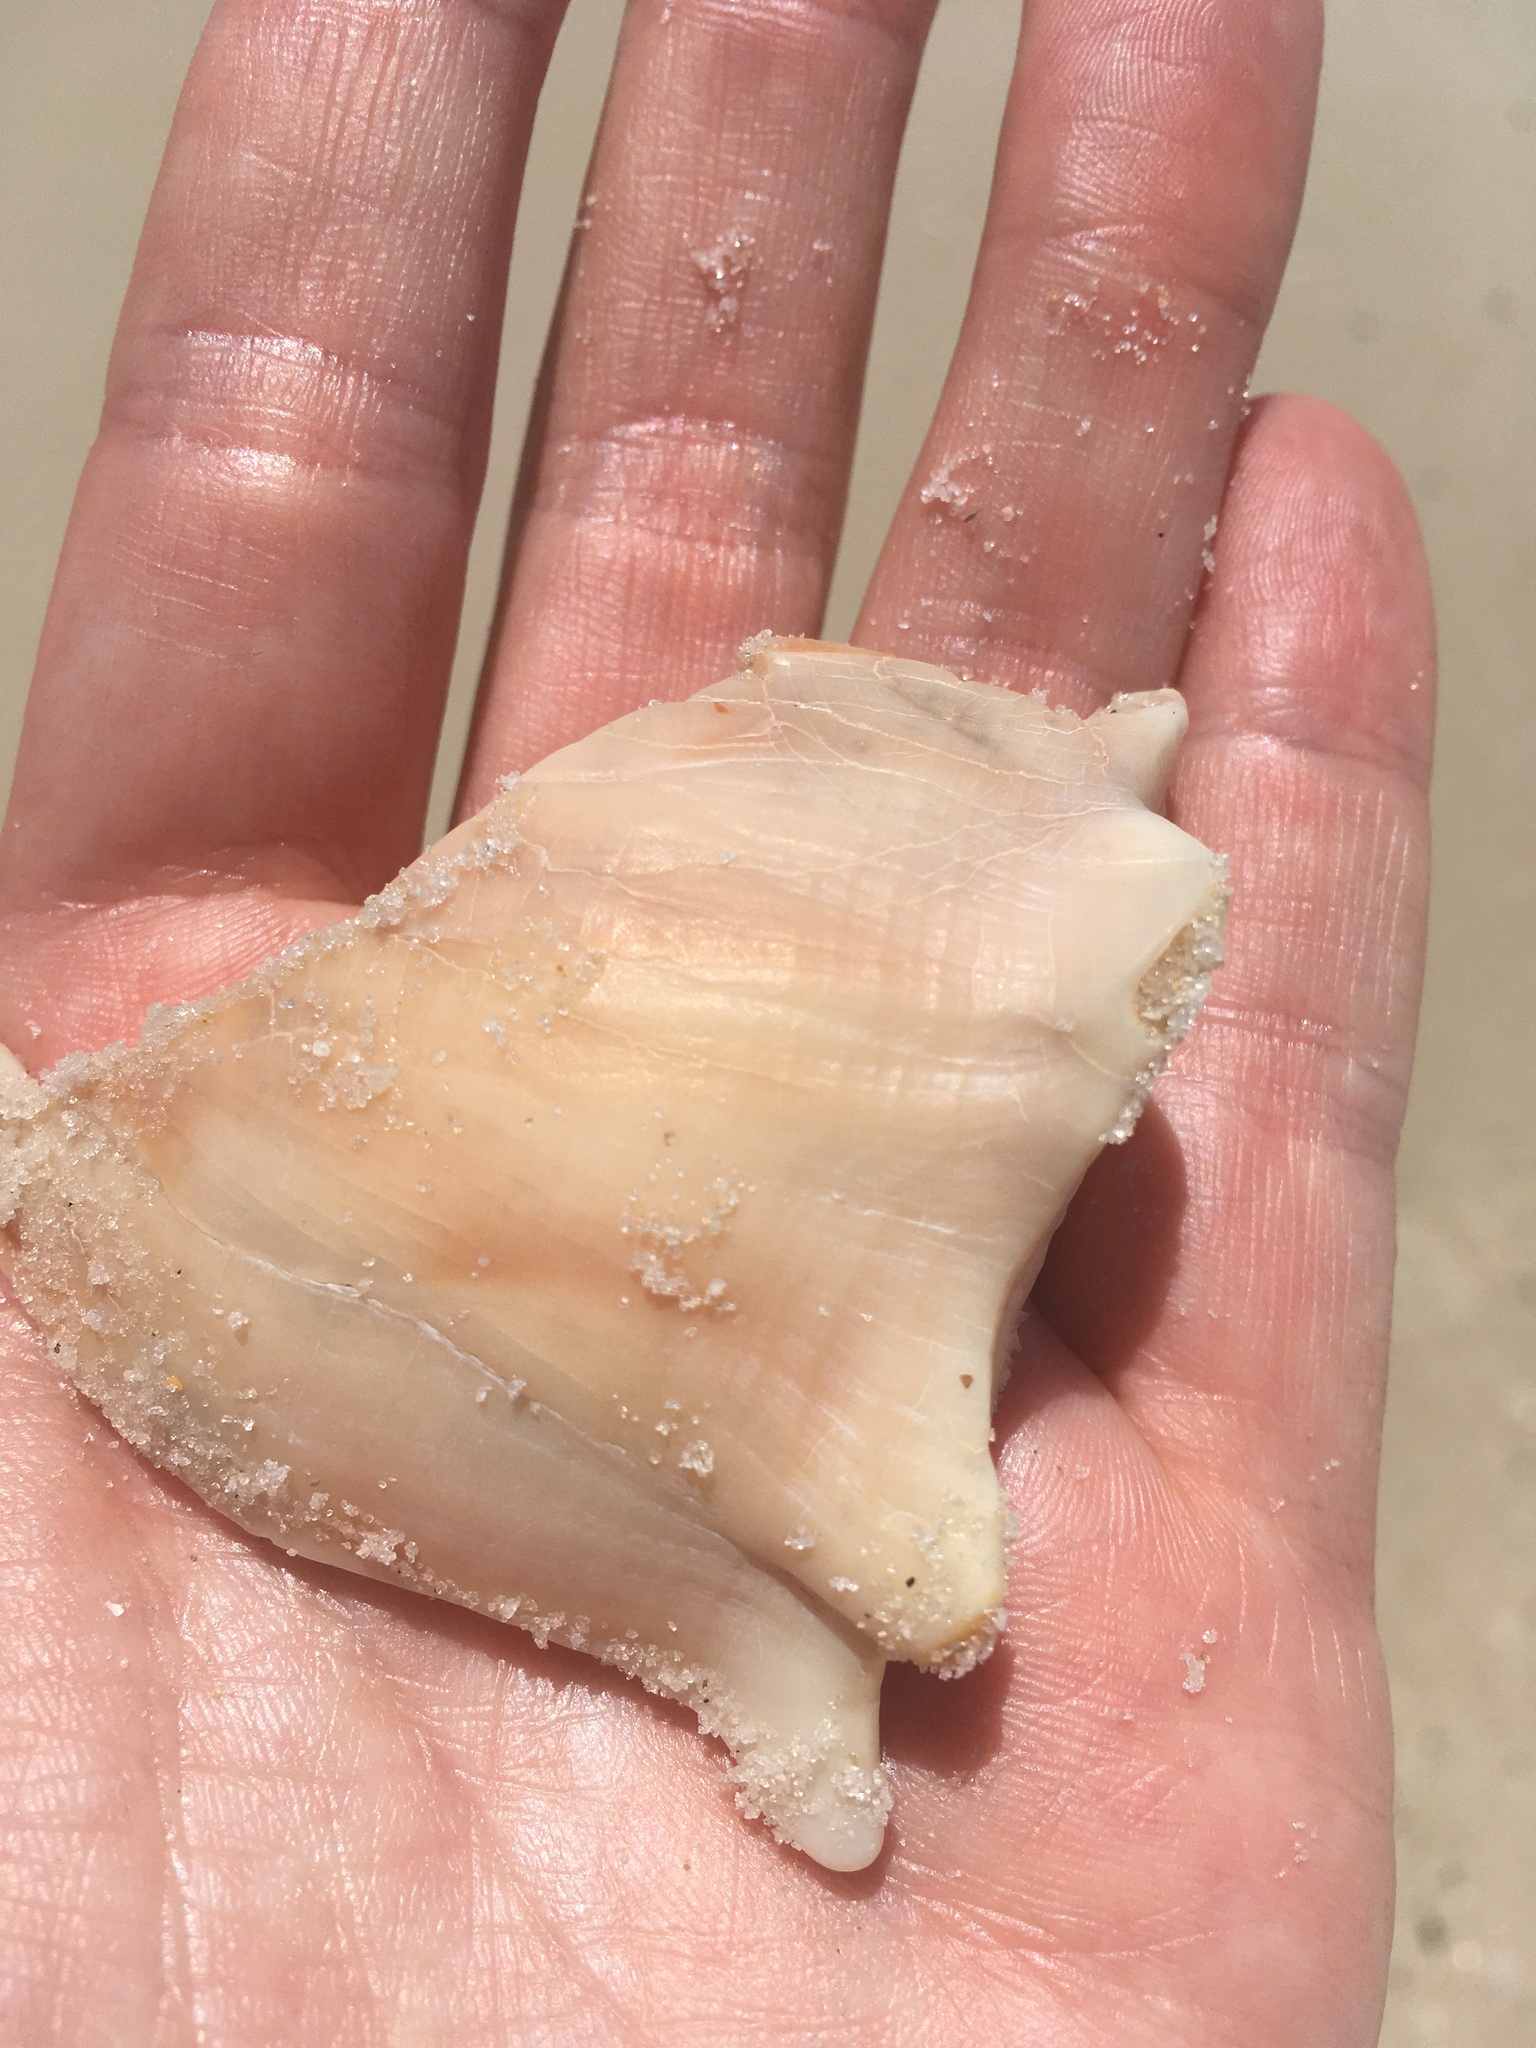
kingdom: Animalia
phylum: Mollusca
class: Gastropoda
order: Neogastropoda
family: Busyconidae
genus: Sinistrofulgur
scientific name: Sinistrofulgur sinistrum
